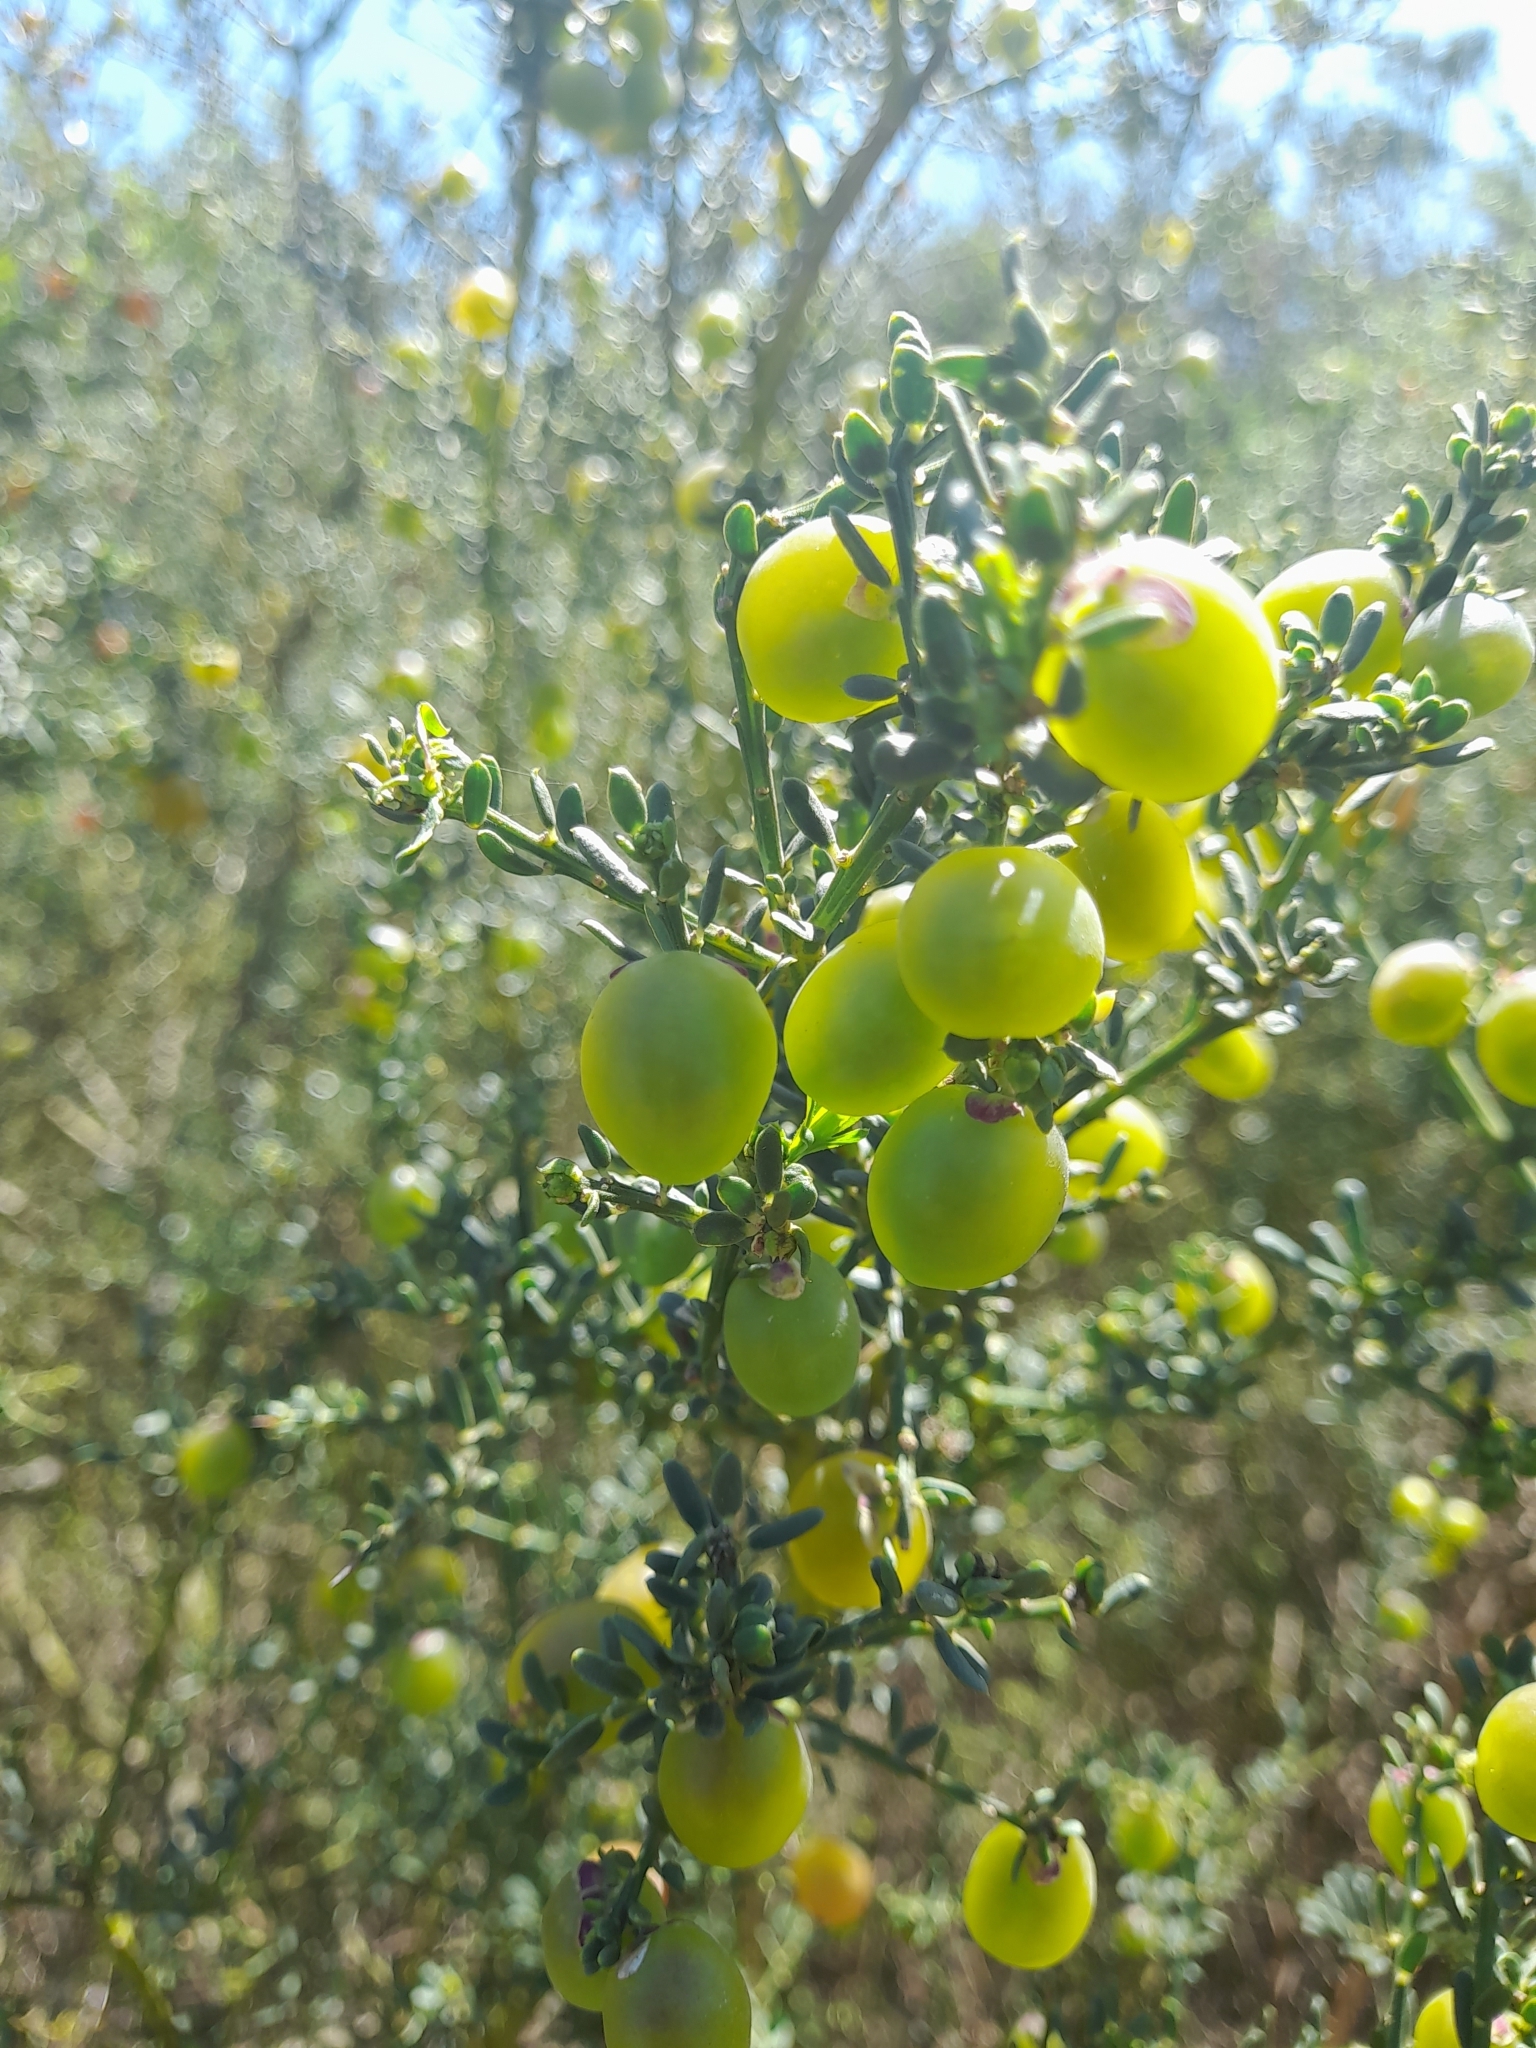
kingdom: Plantae
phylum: Tracheophyta
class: Magnoliopsida
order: Fabales
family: Polygalaceae
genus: Muraltia
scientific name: Muraltia spinosa
